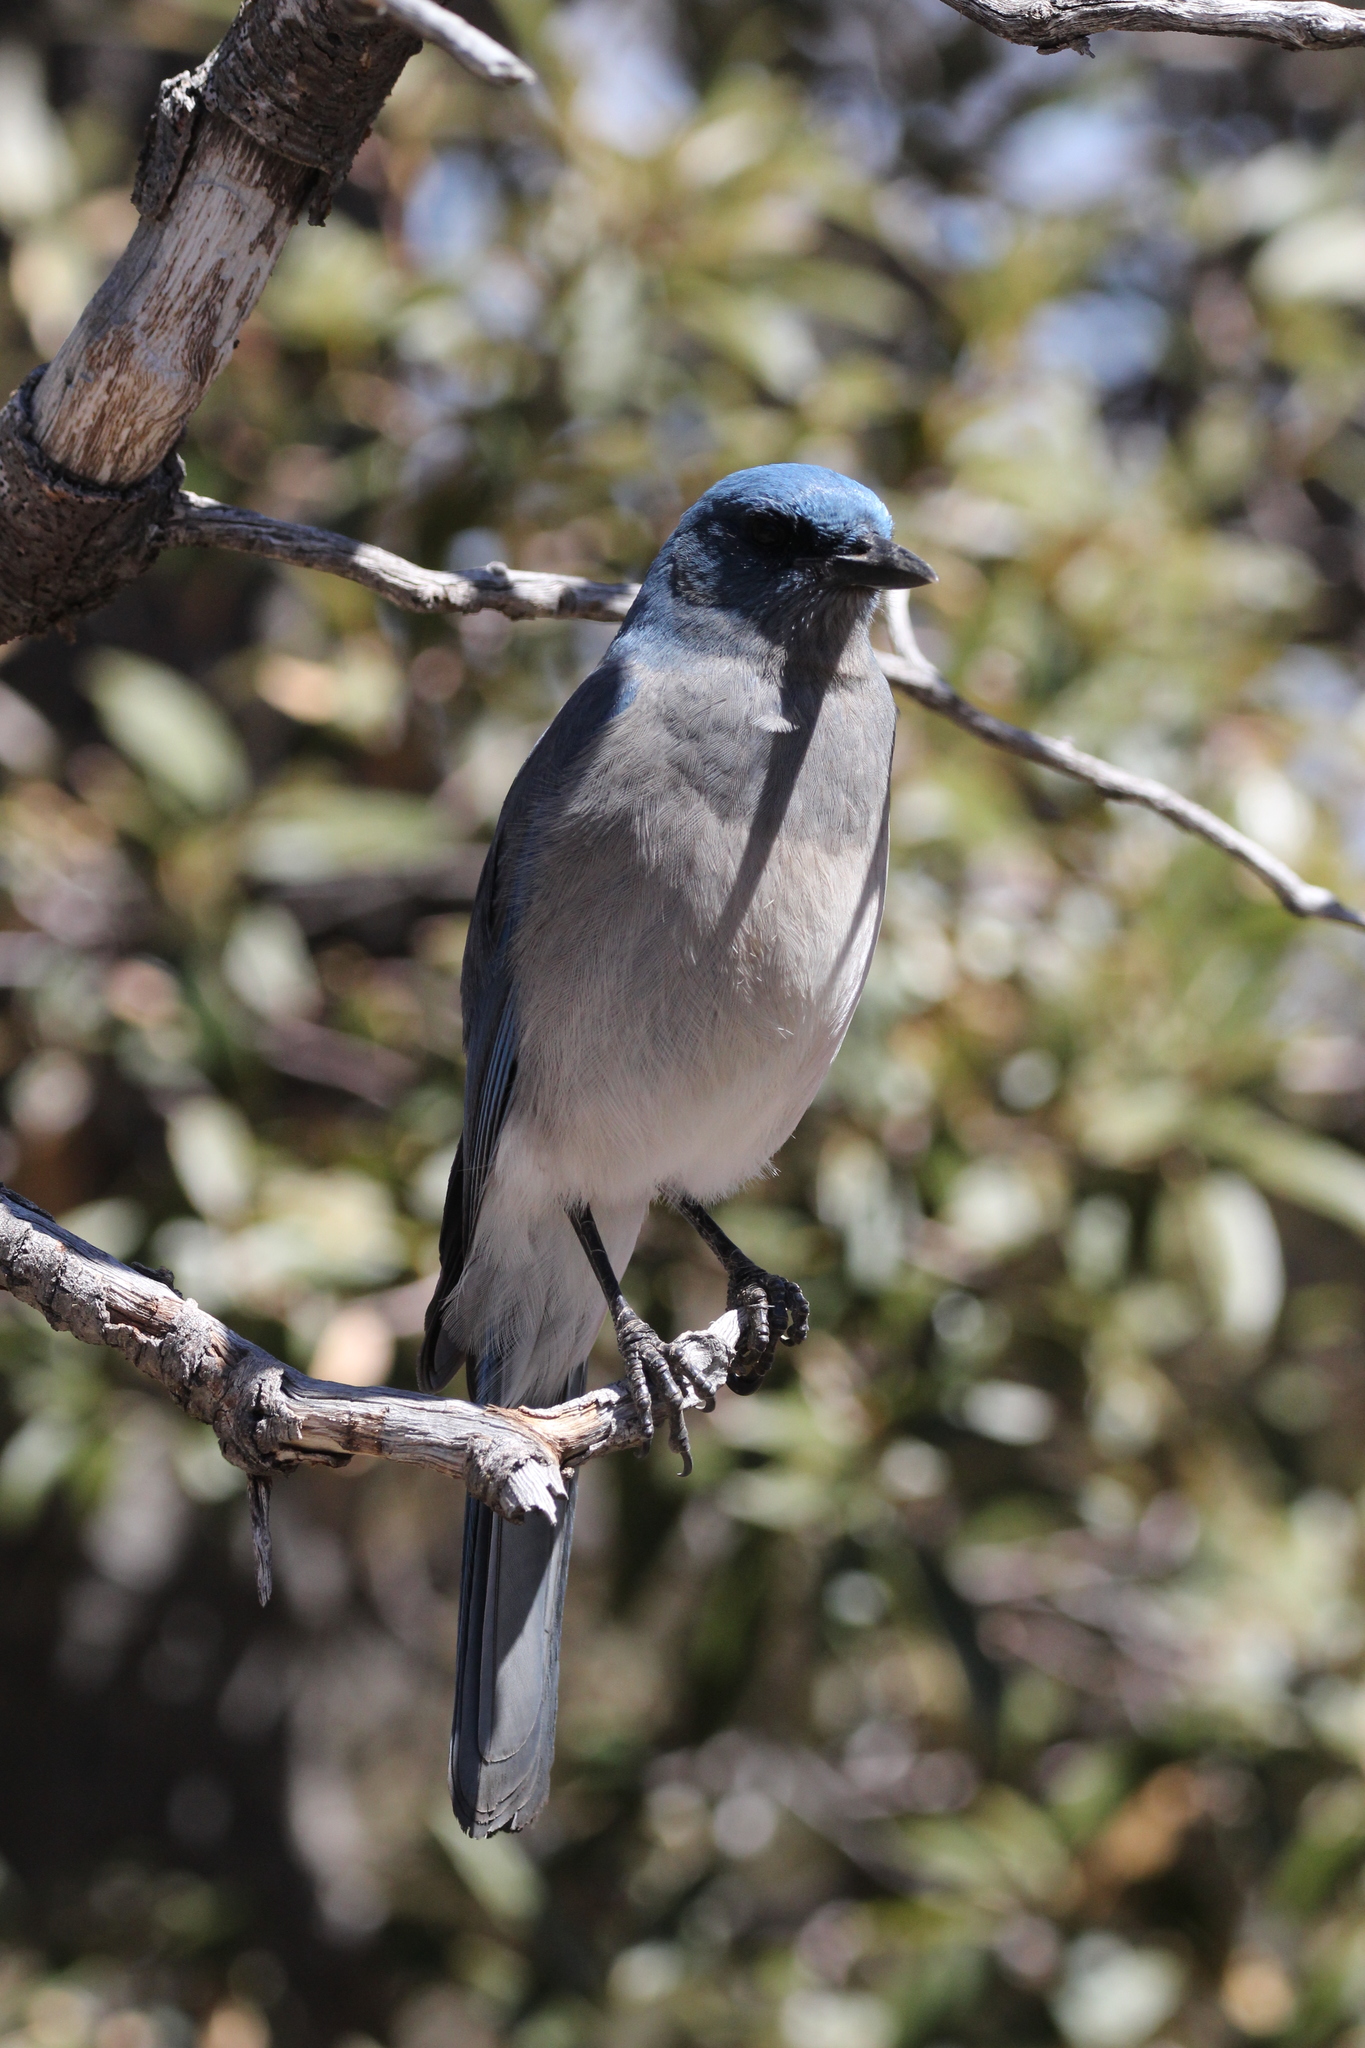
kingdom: Animalia
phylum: Chordata
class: Aves
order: Passeriformes
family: Corvidae
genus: Aphelocoma
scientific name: Aphelocoma wollweberi
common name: Mexican jay
